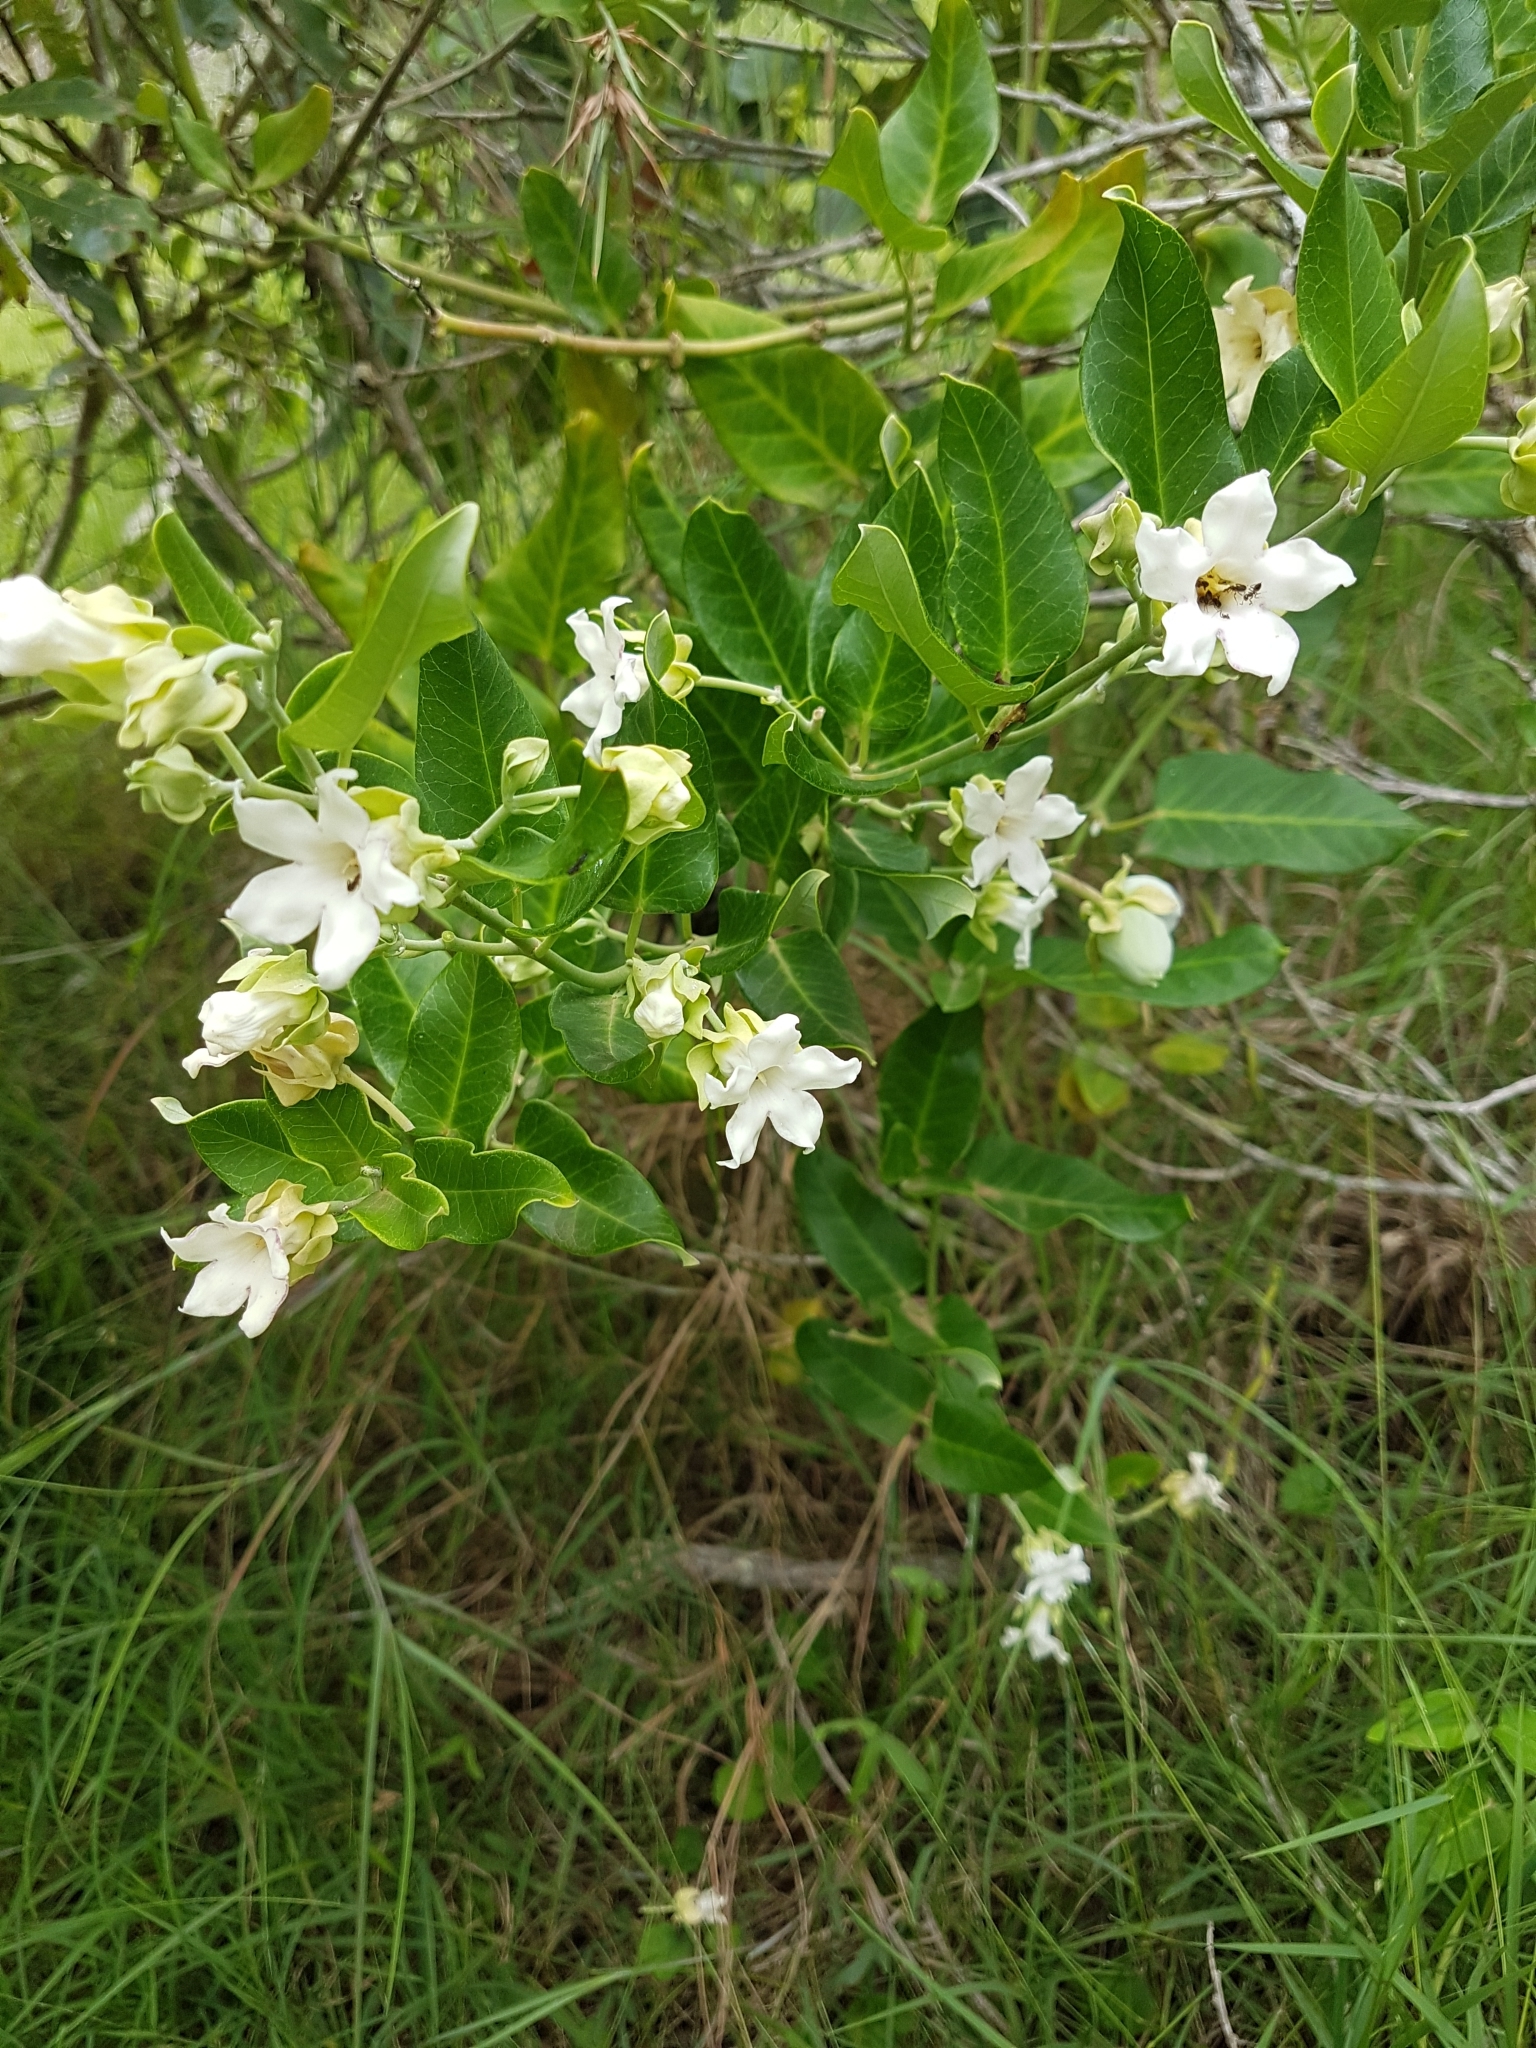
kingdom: Plantae
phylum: Tracheophyta
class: Magnoliopsida
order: Gentianales
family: Apocynaceae
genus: Araujia
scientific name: Araujia sericifera
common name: White bladderflower
